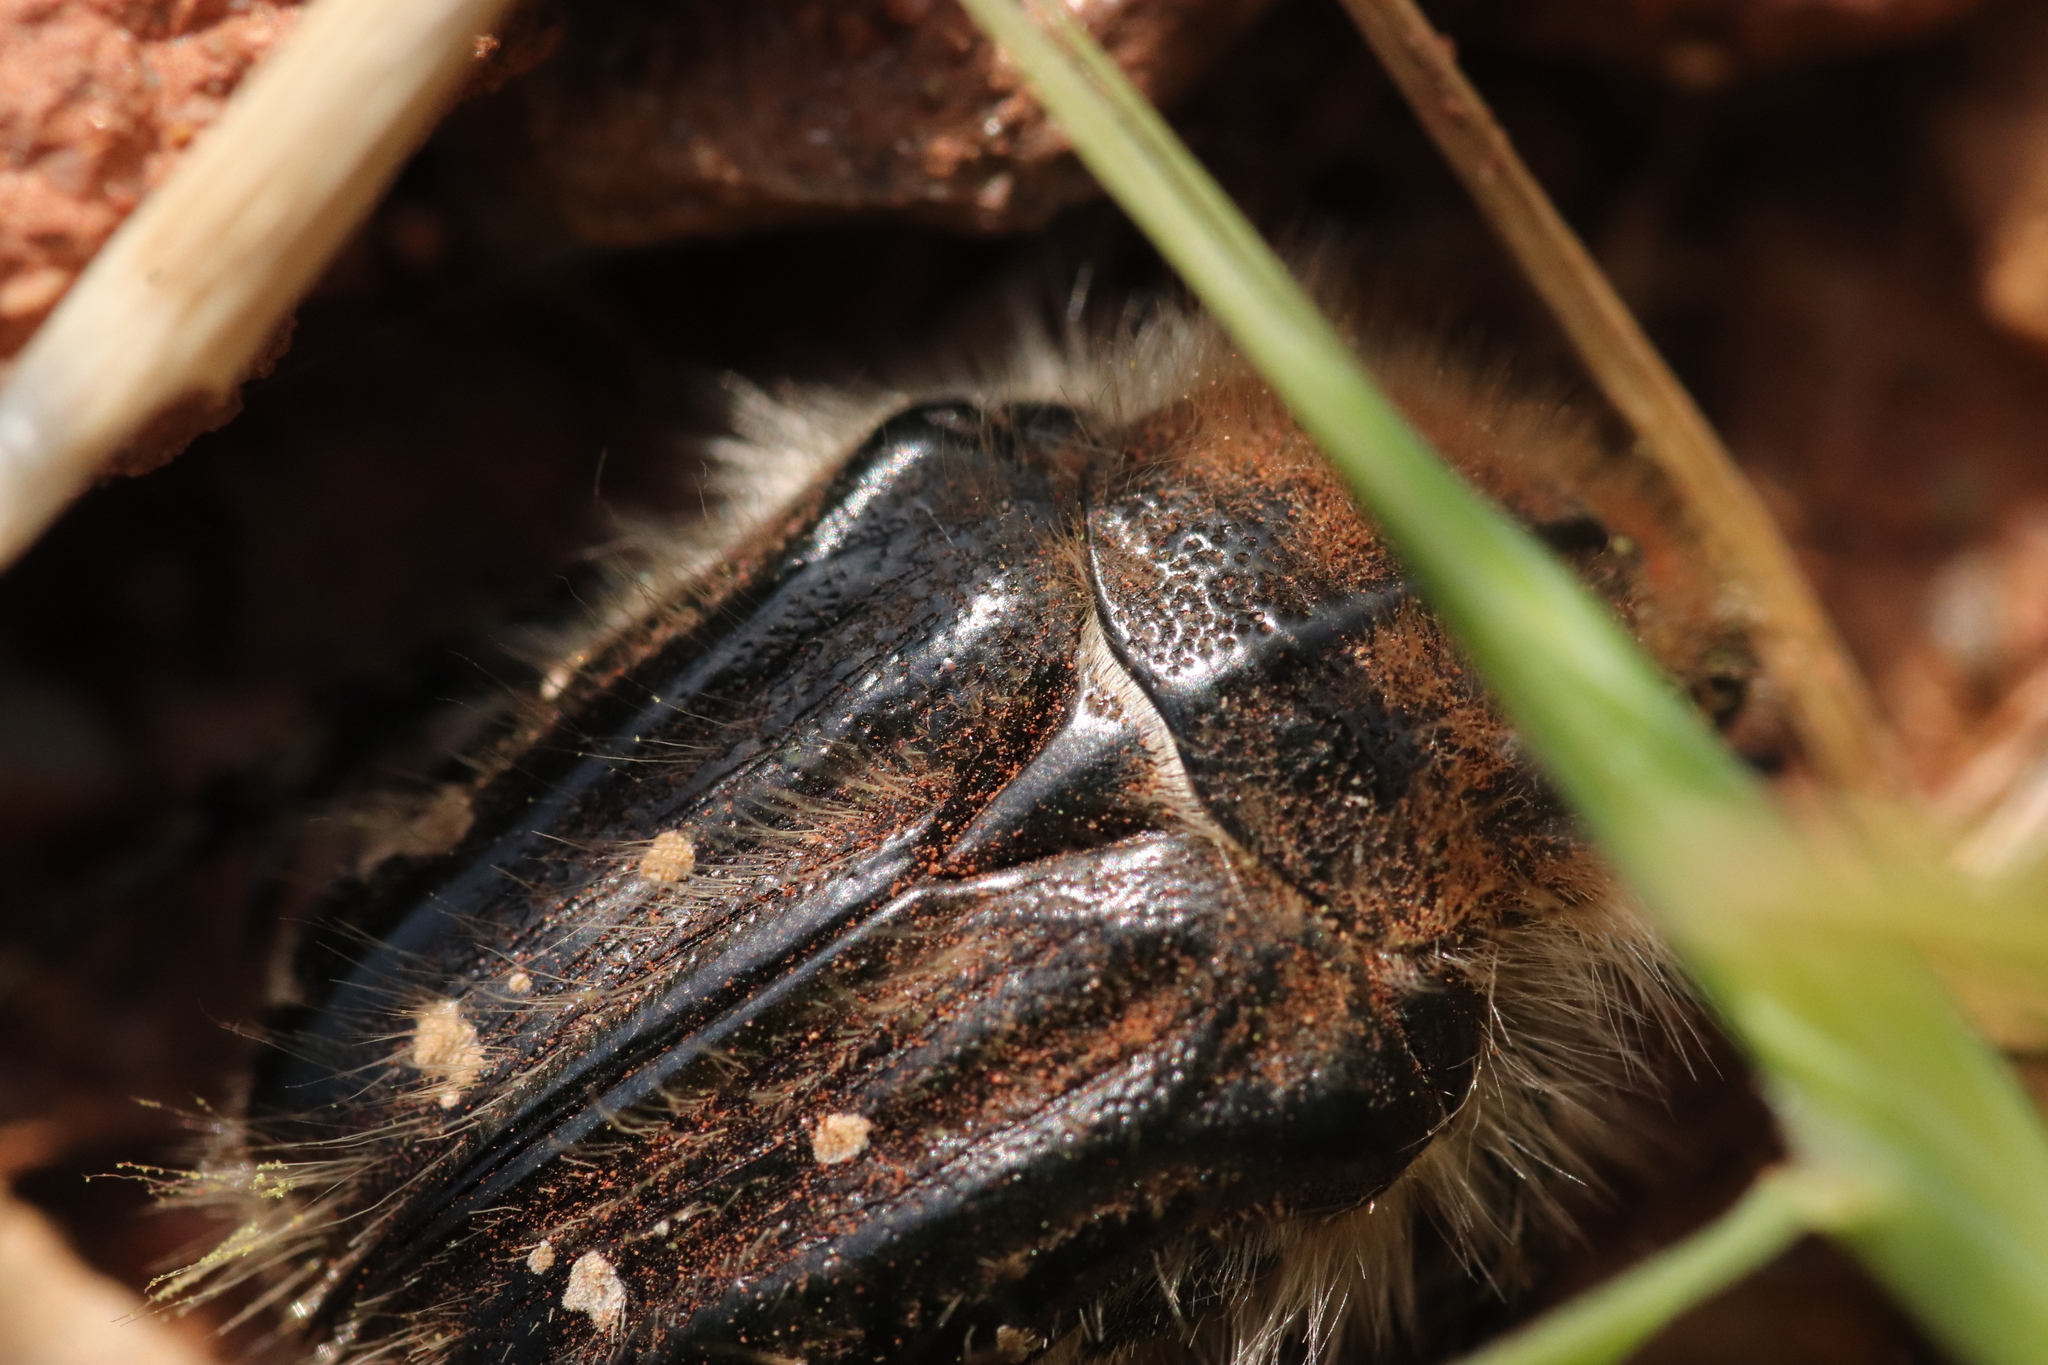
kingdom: Animalia
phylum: Arthropoda
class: Insecta
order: Coleoptera
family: Scarabaeidae
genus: Tropinota
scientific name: Tropinota squalida
